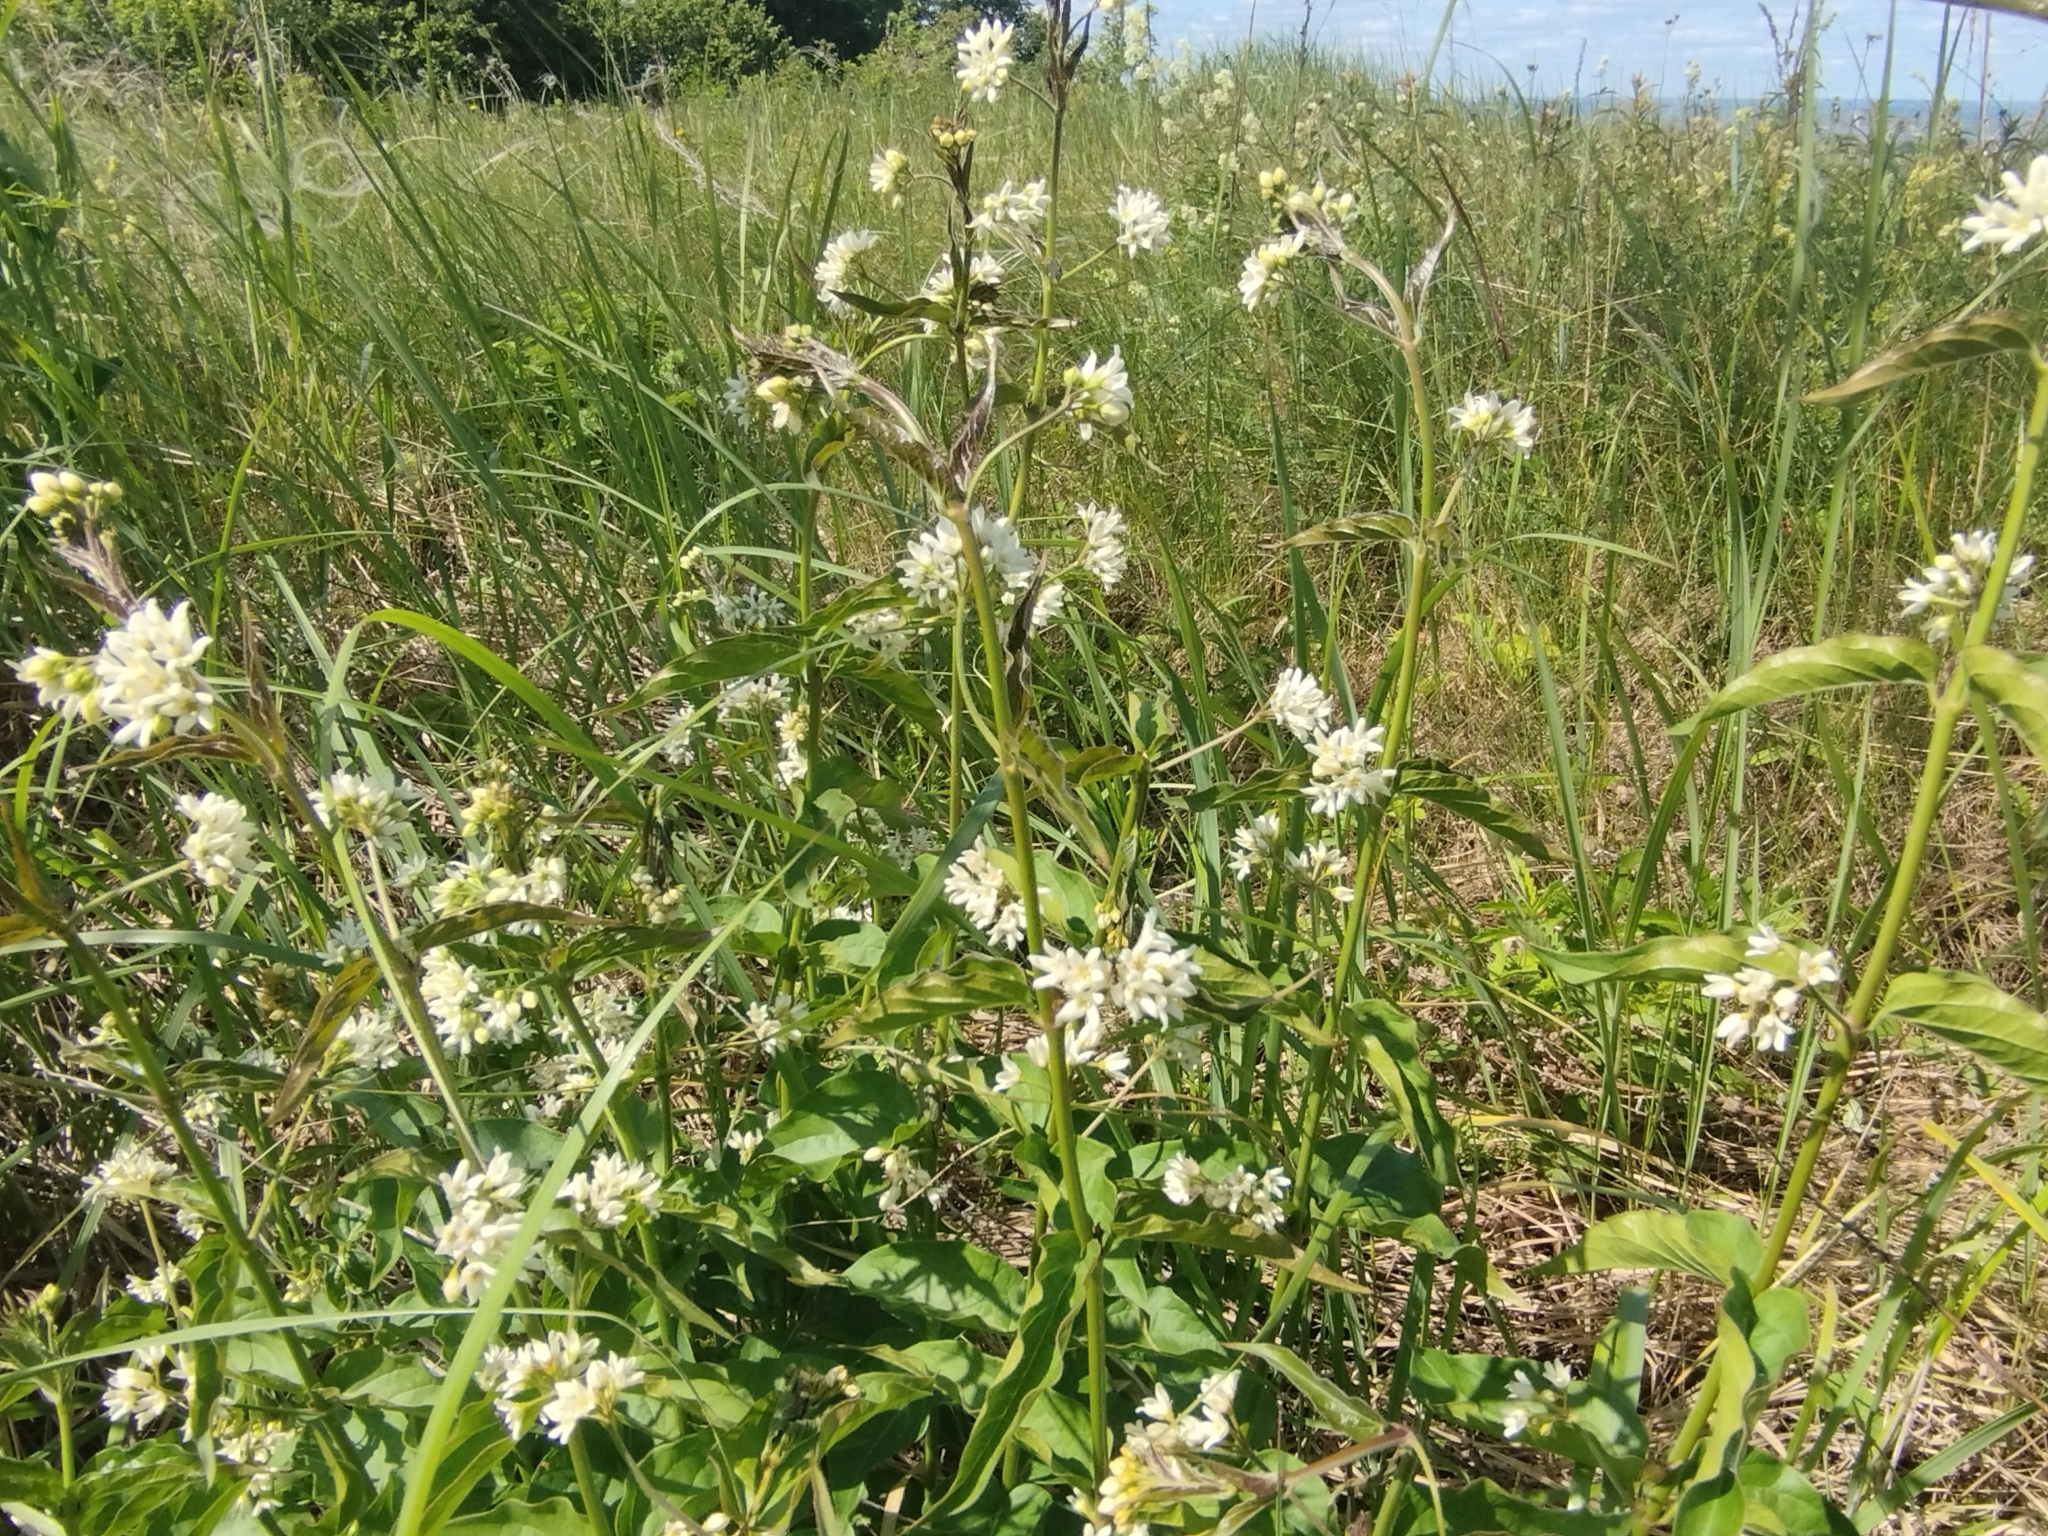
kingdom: Plantae
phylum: Tracheophyta
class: Magnoliopsida
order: Gentianales
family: Apocynaceae
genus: Vincetoxicum
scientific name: Vincetoxicum hirundinaria
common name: White swallowwort
